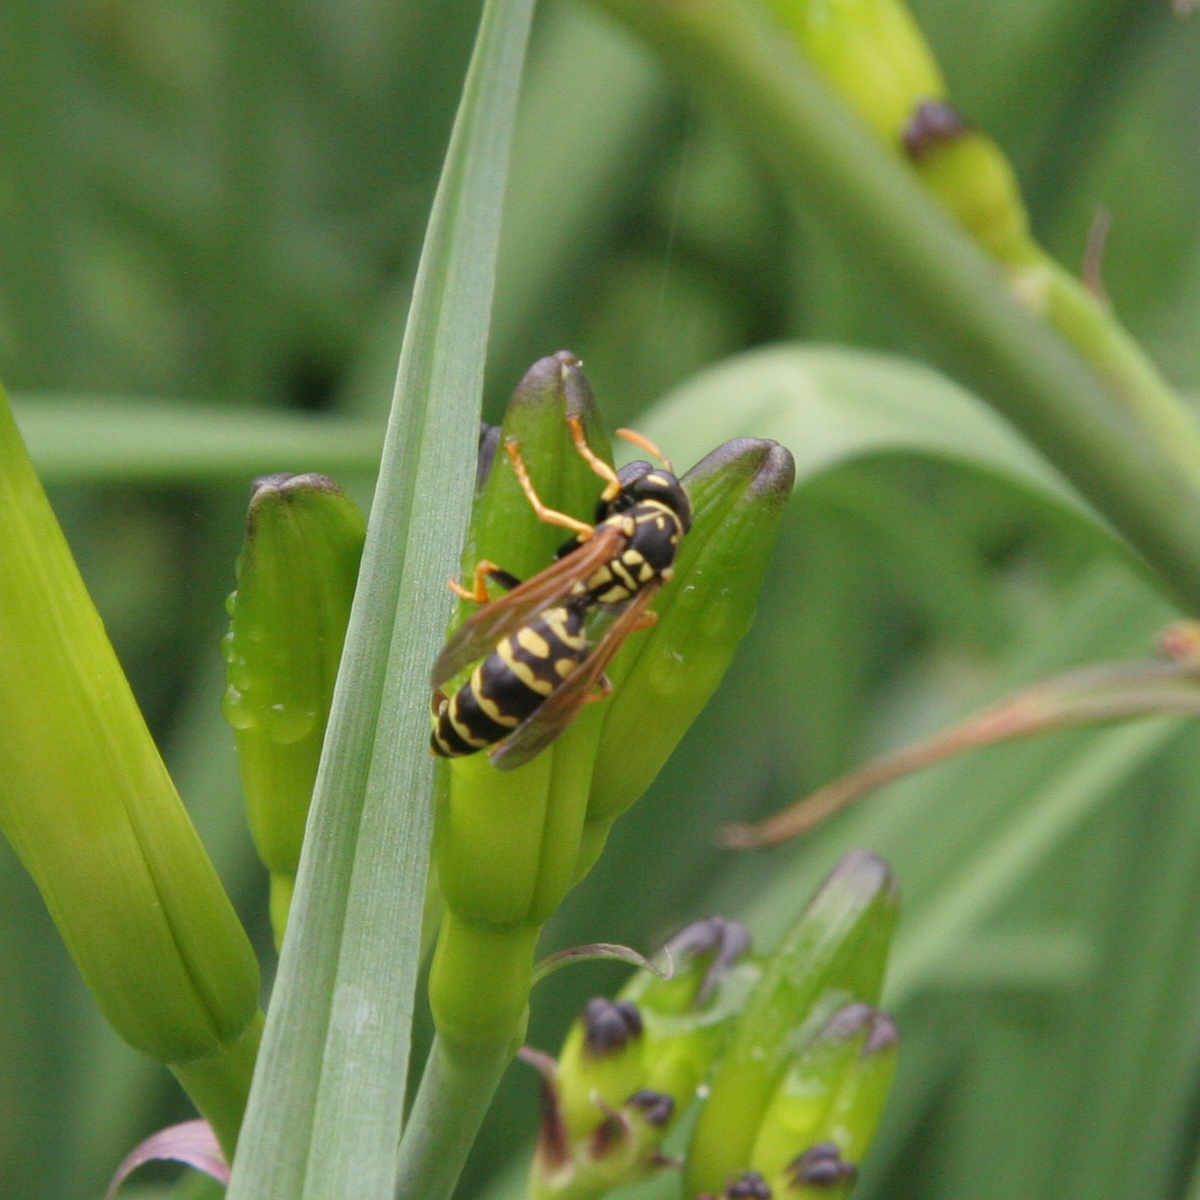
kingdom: Animalia
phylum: Arthropoda
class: Insecta
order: Hymenoptera
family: Eumenidae
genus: Polistes
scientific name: Polistes dominula
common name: Paper wasp
